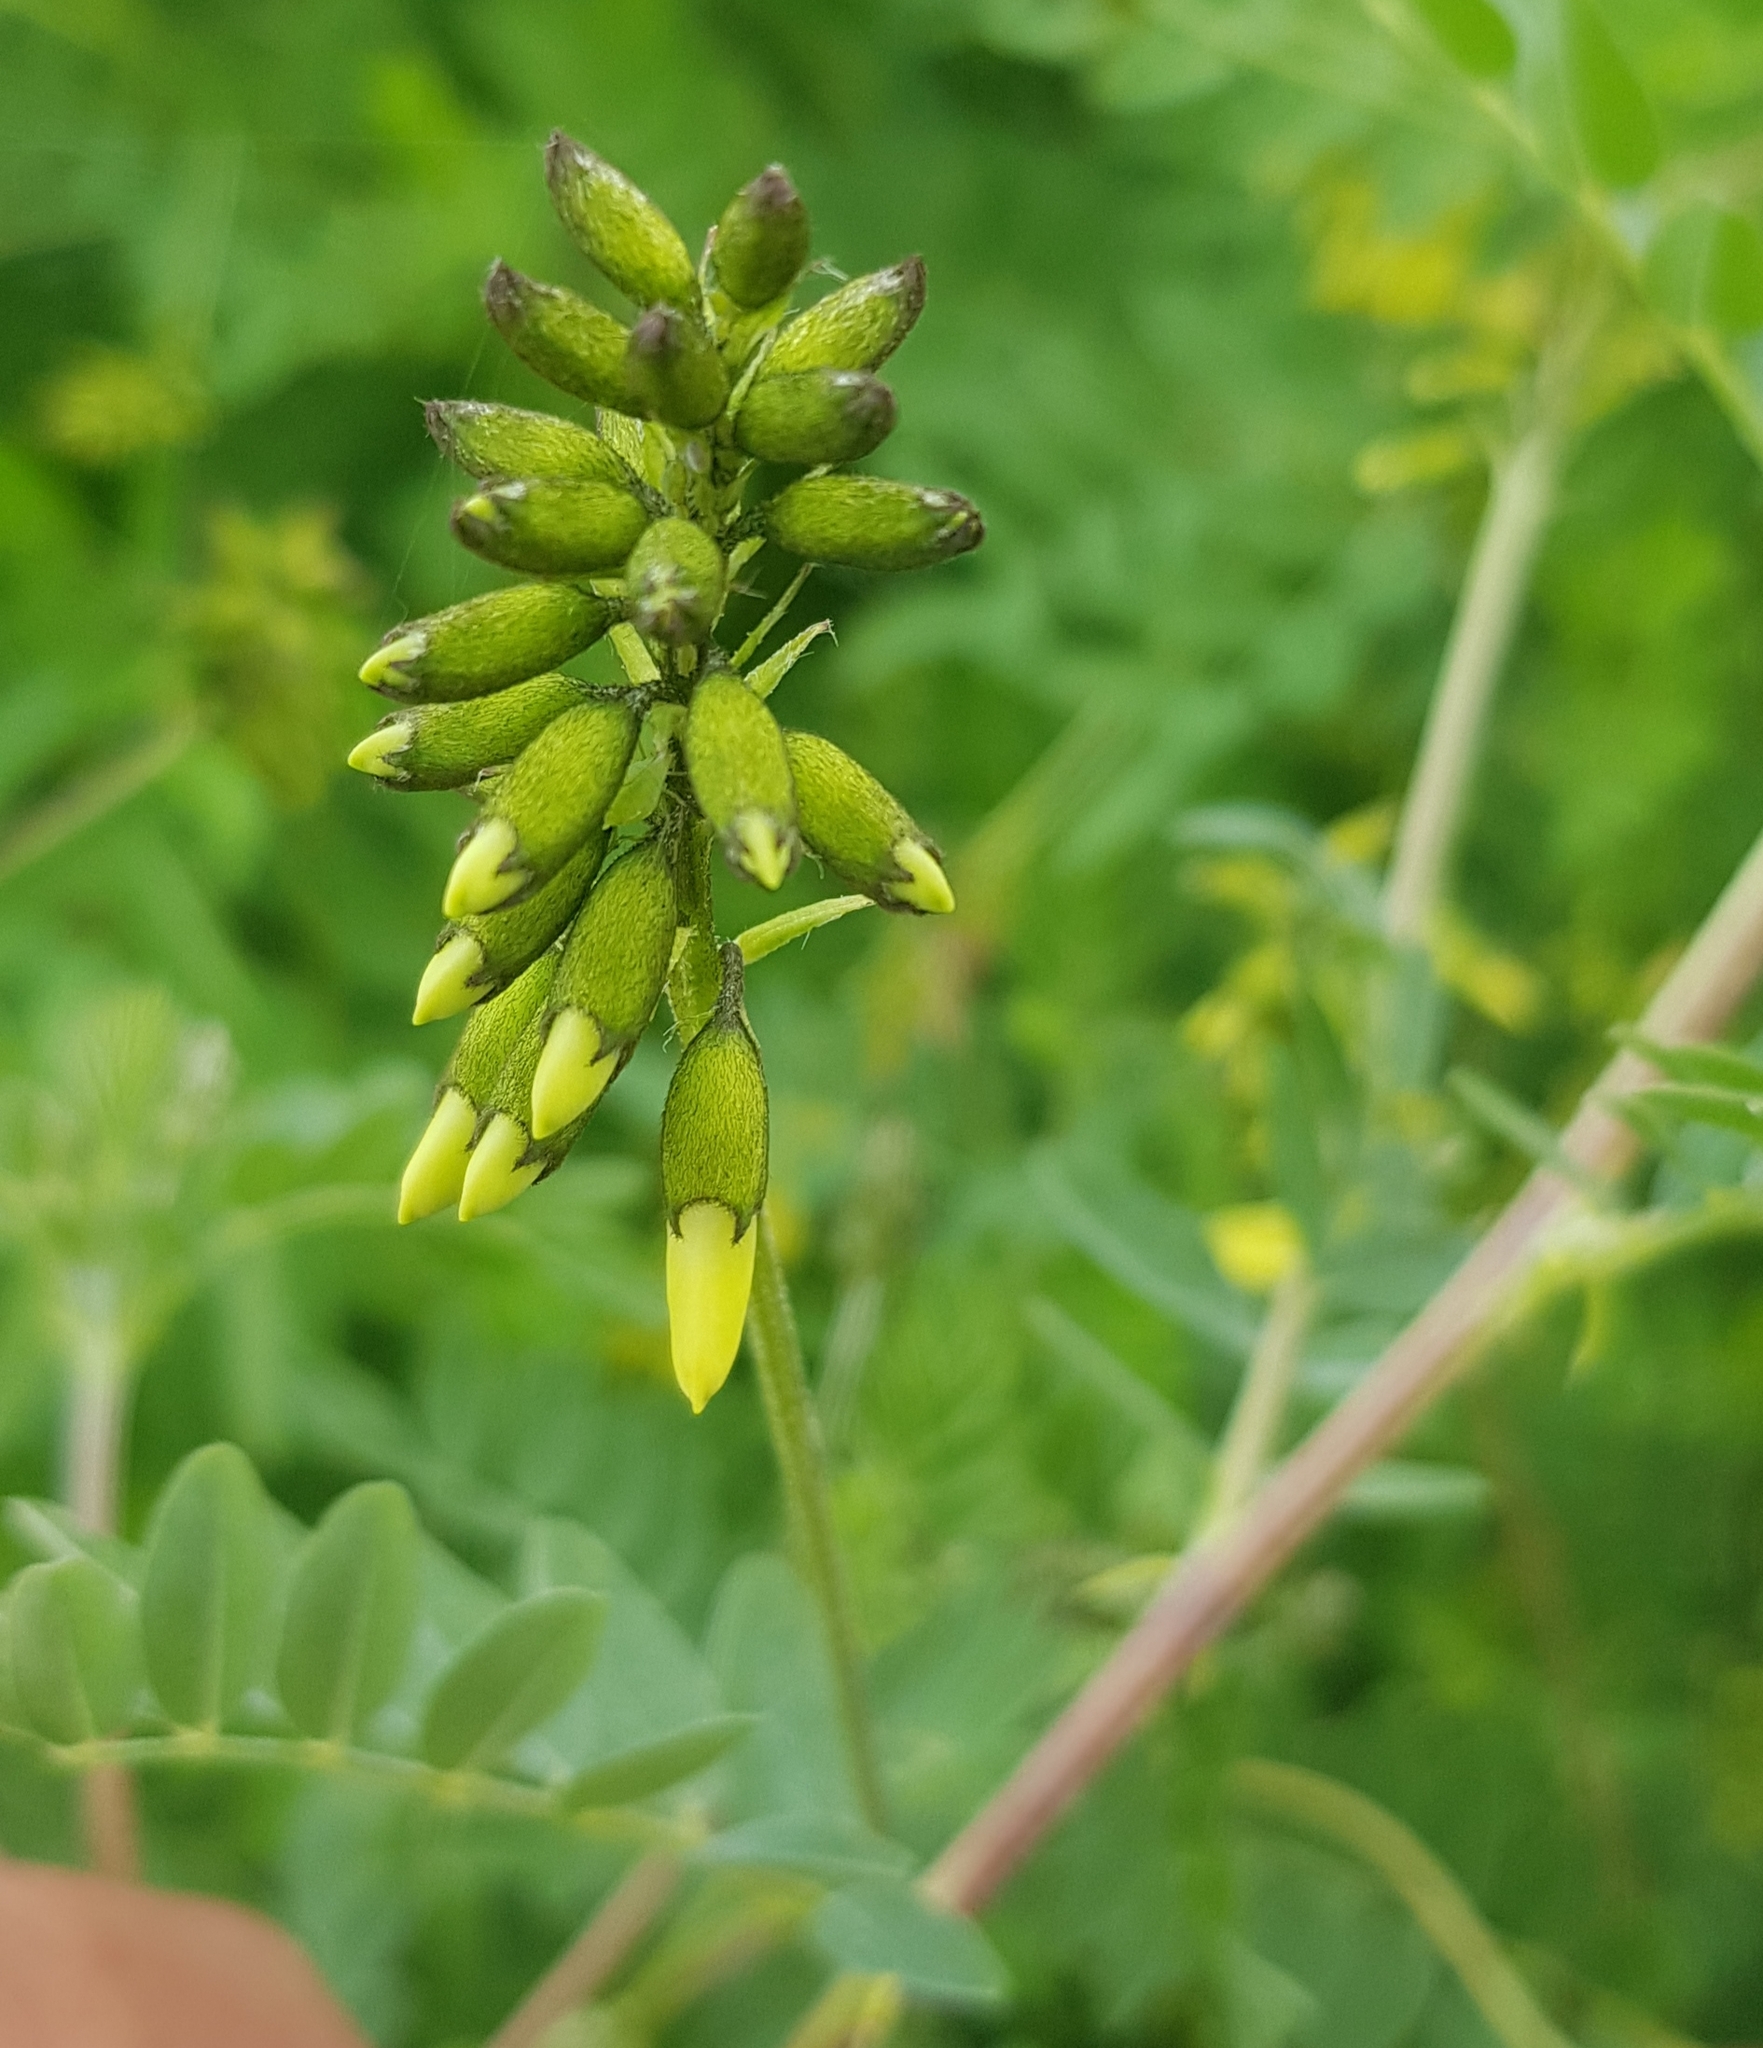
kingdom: Plantae
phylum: Tracheophyta
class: Magnoliopsida
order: Fabales
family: Fabaceae
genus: Astragalus
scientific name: Astragalus frigidus
